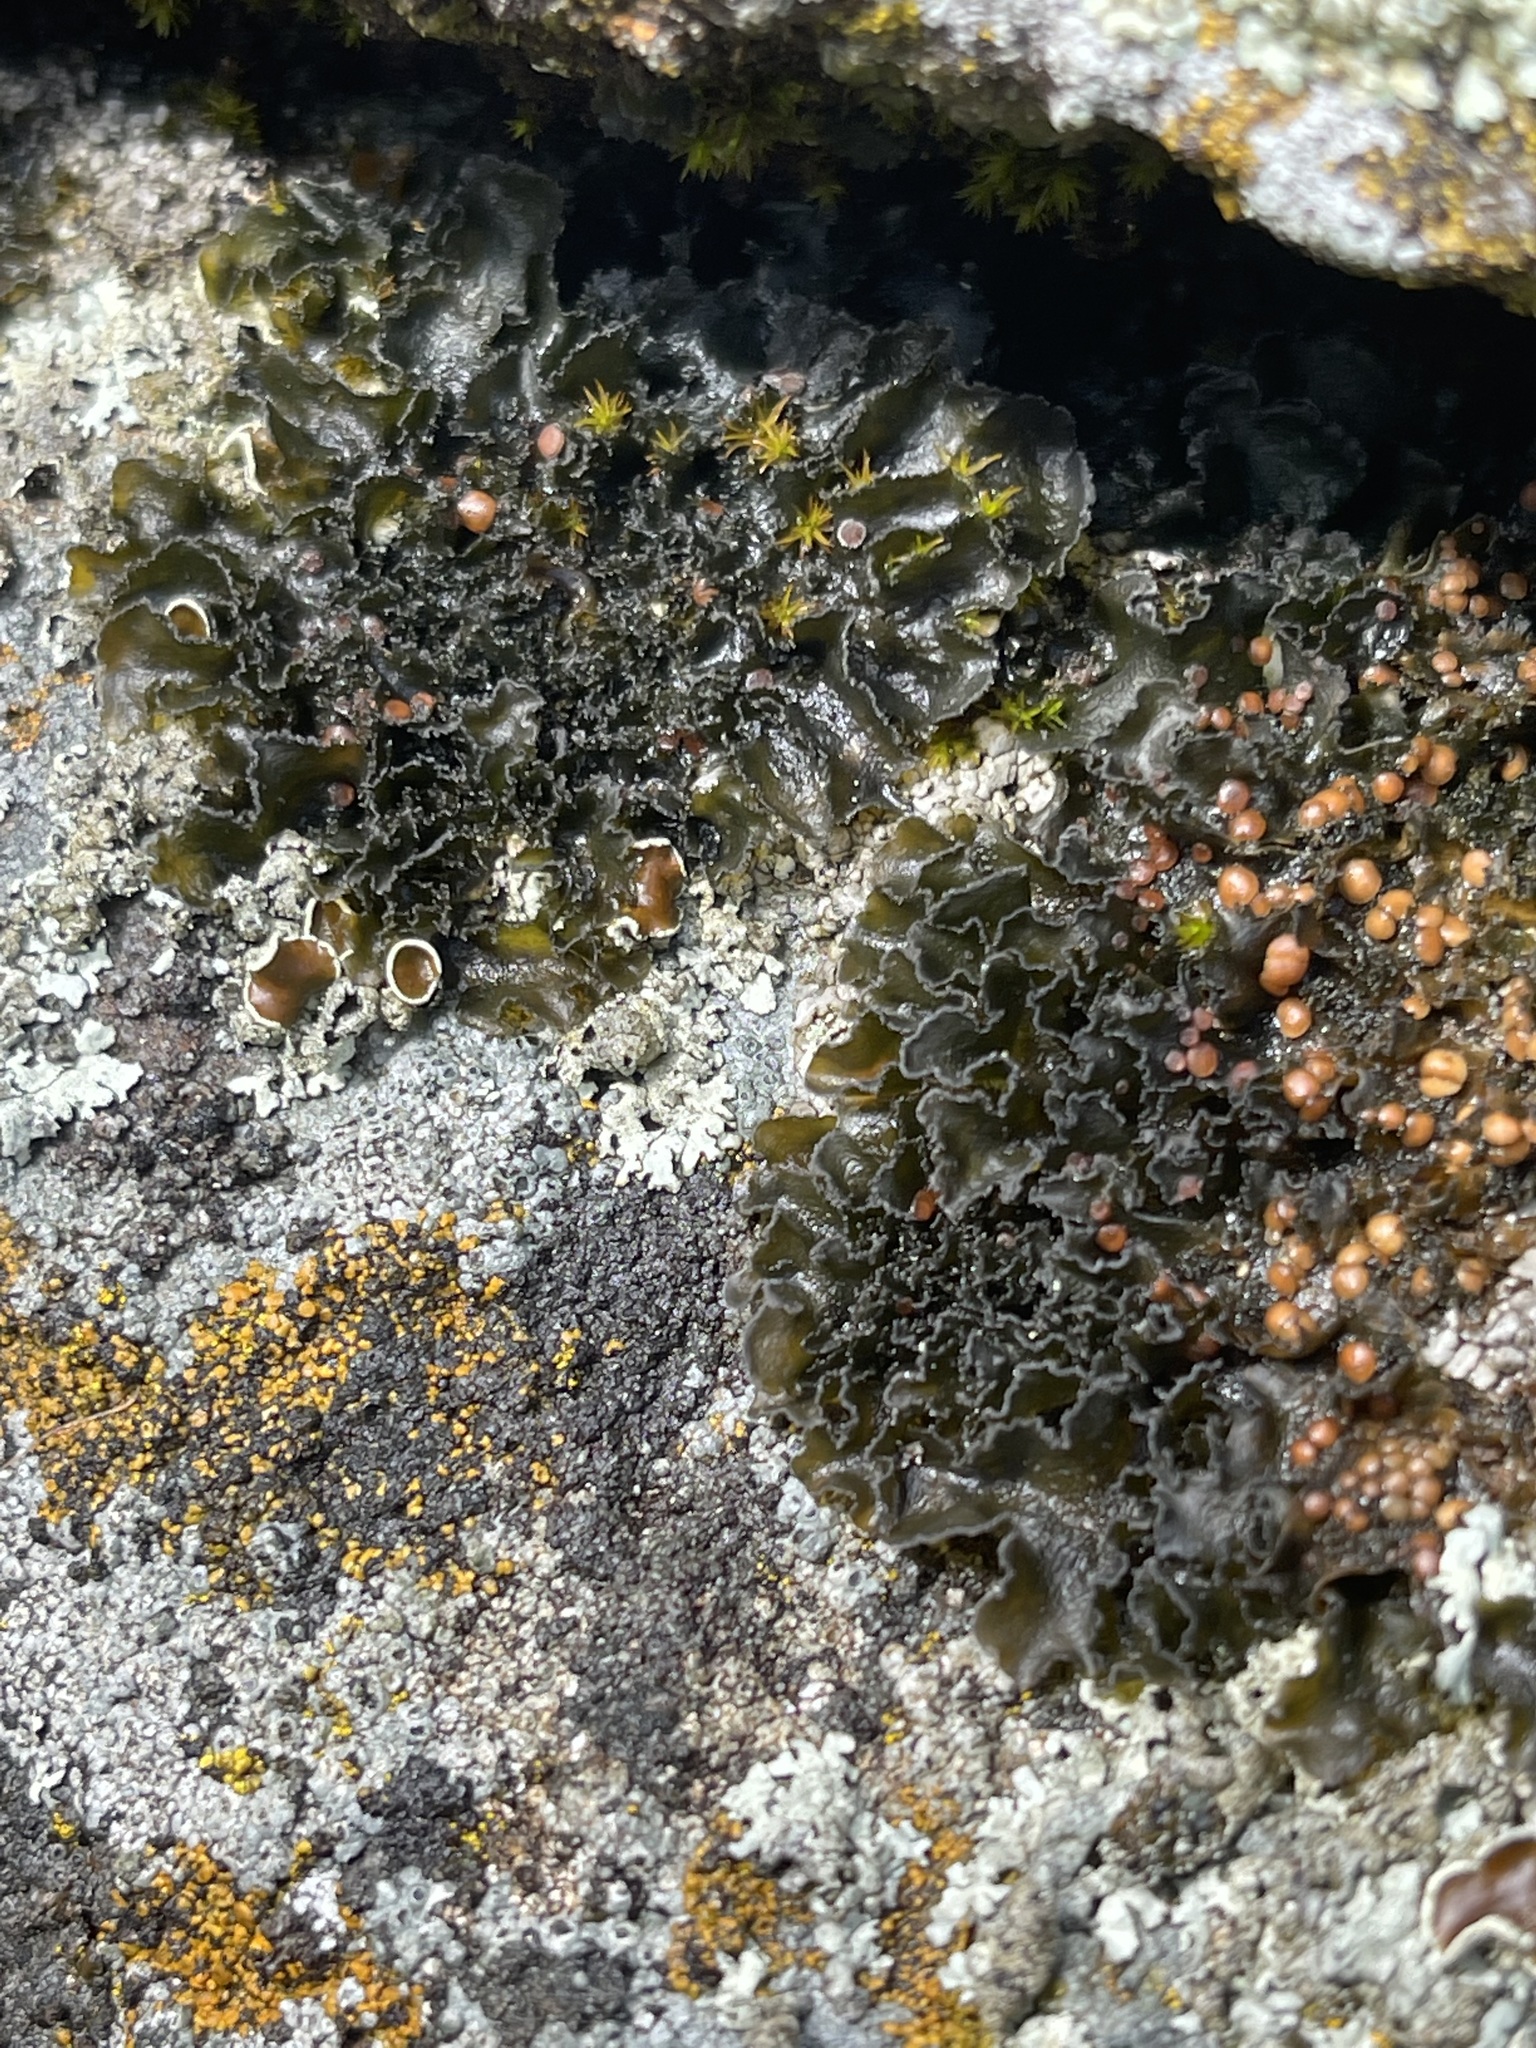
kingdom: Fungi
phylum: Ascomycota
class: Lecanoromycetes
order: Peltigerales
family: Massalongiaceae
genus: Leptochidium
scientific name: Leptochidium albociliatum
